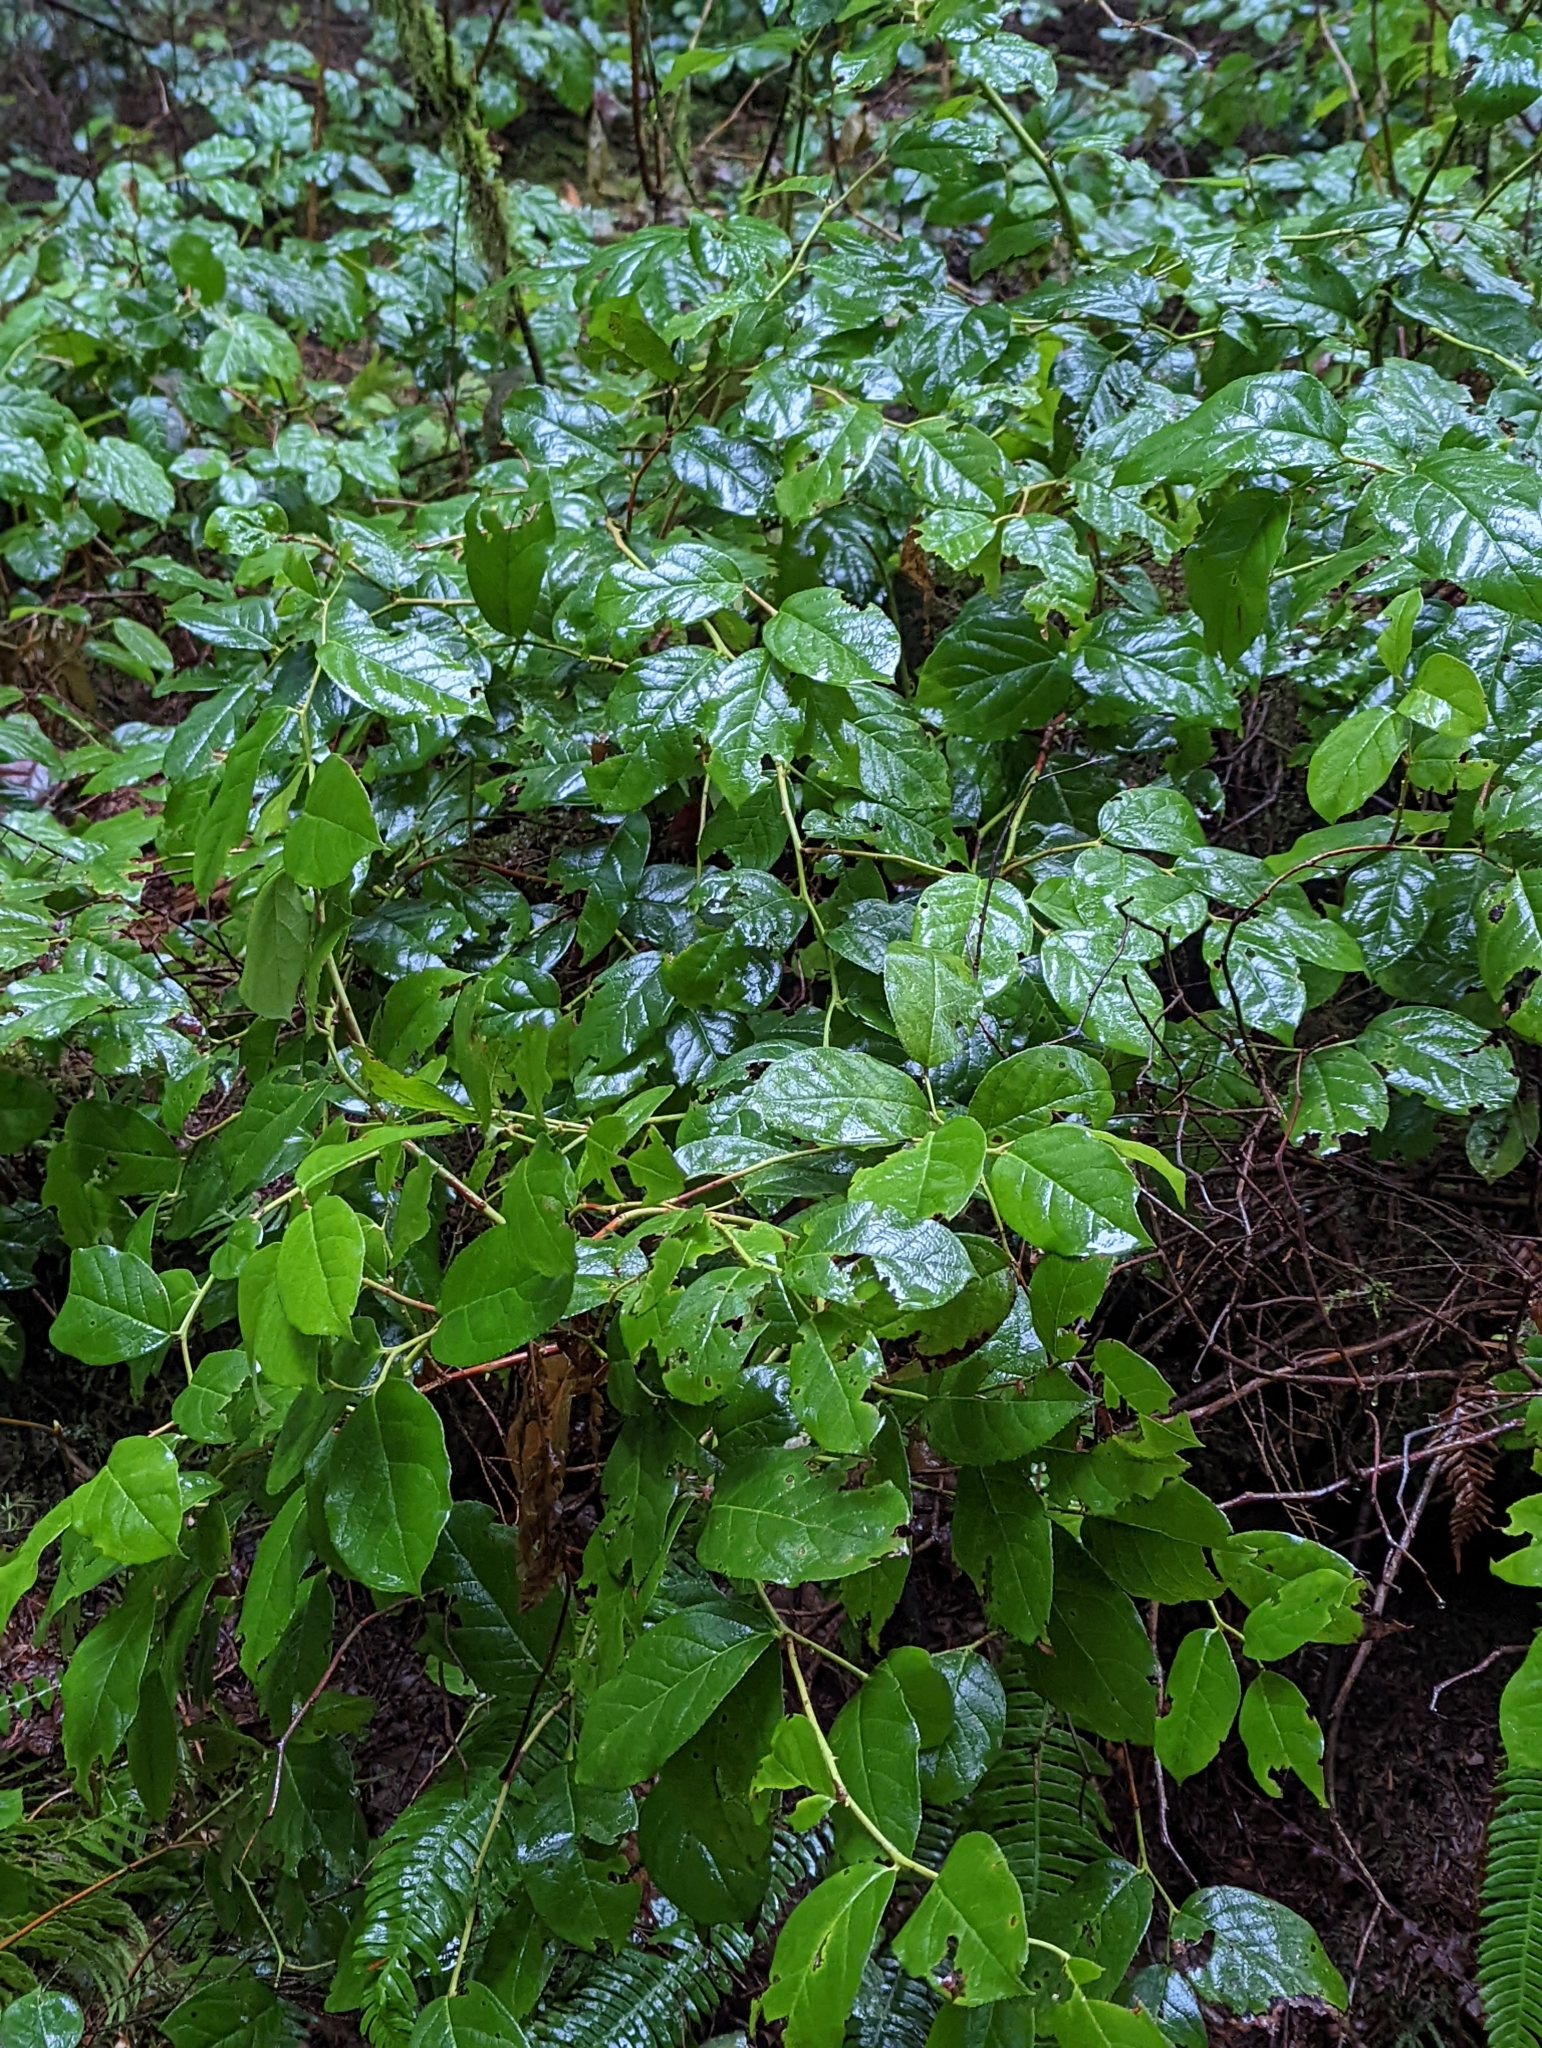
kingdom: Plantae
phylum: Tracheophyta
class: Magnoliopsida
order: Ericales
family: Ericaceae
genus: Gaultheria
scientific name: Gaultheria shallon
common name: Shallon
